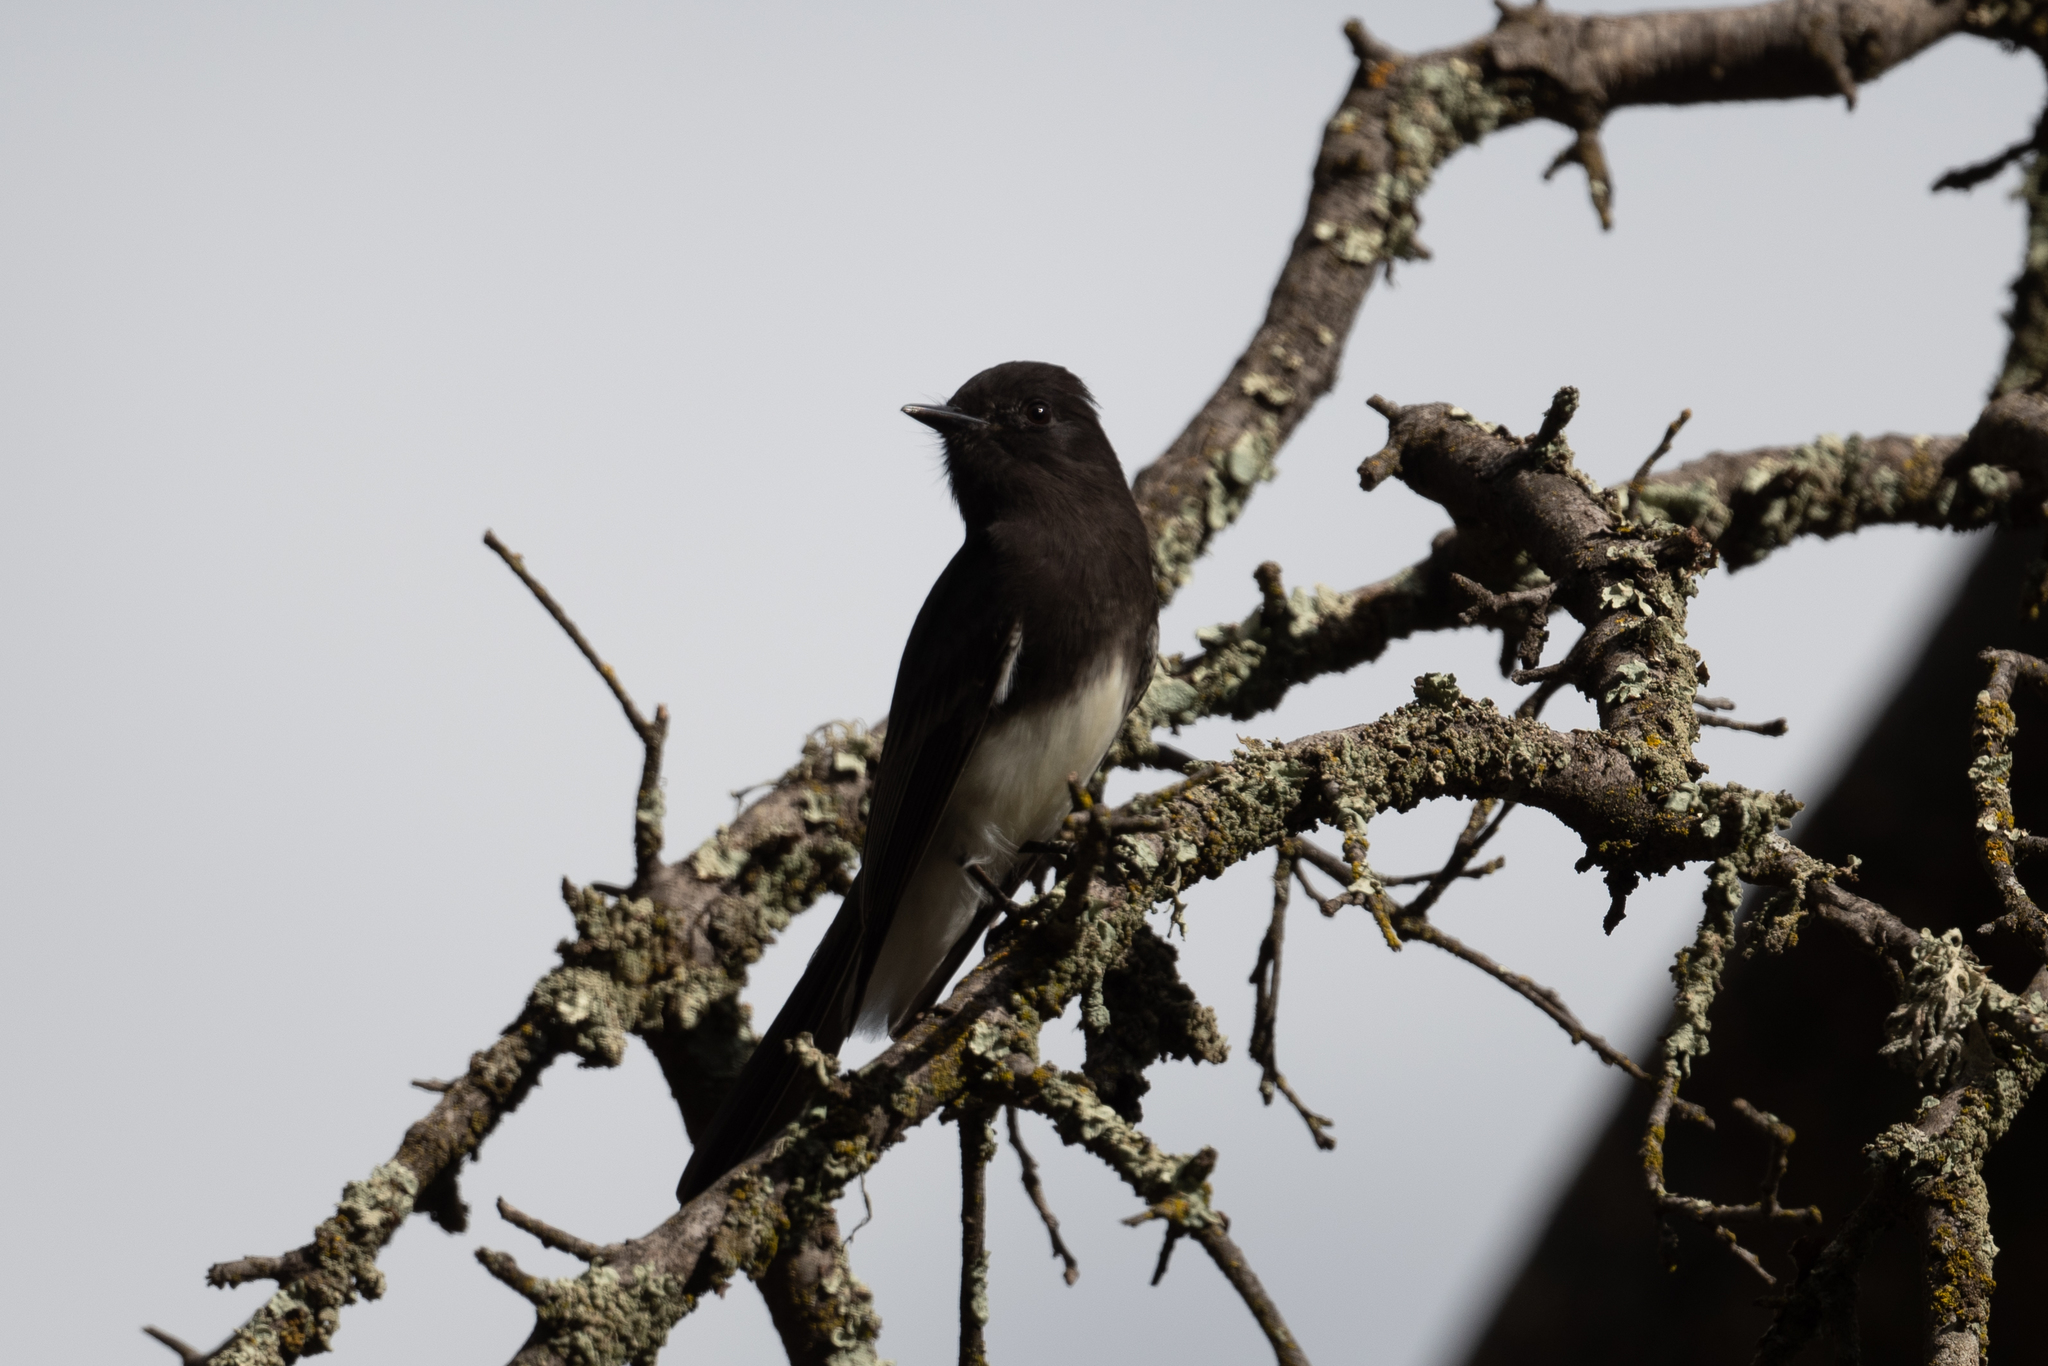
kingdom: Animalia
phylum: Chordata
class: Aves
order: Passeriformes
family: Tyrannidae
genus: Sayornis
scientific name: Sayornis nigricans
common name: Black phoebe
